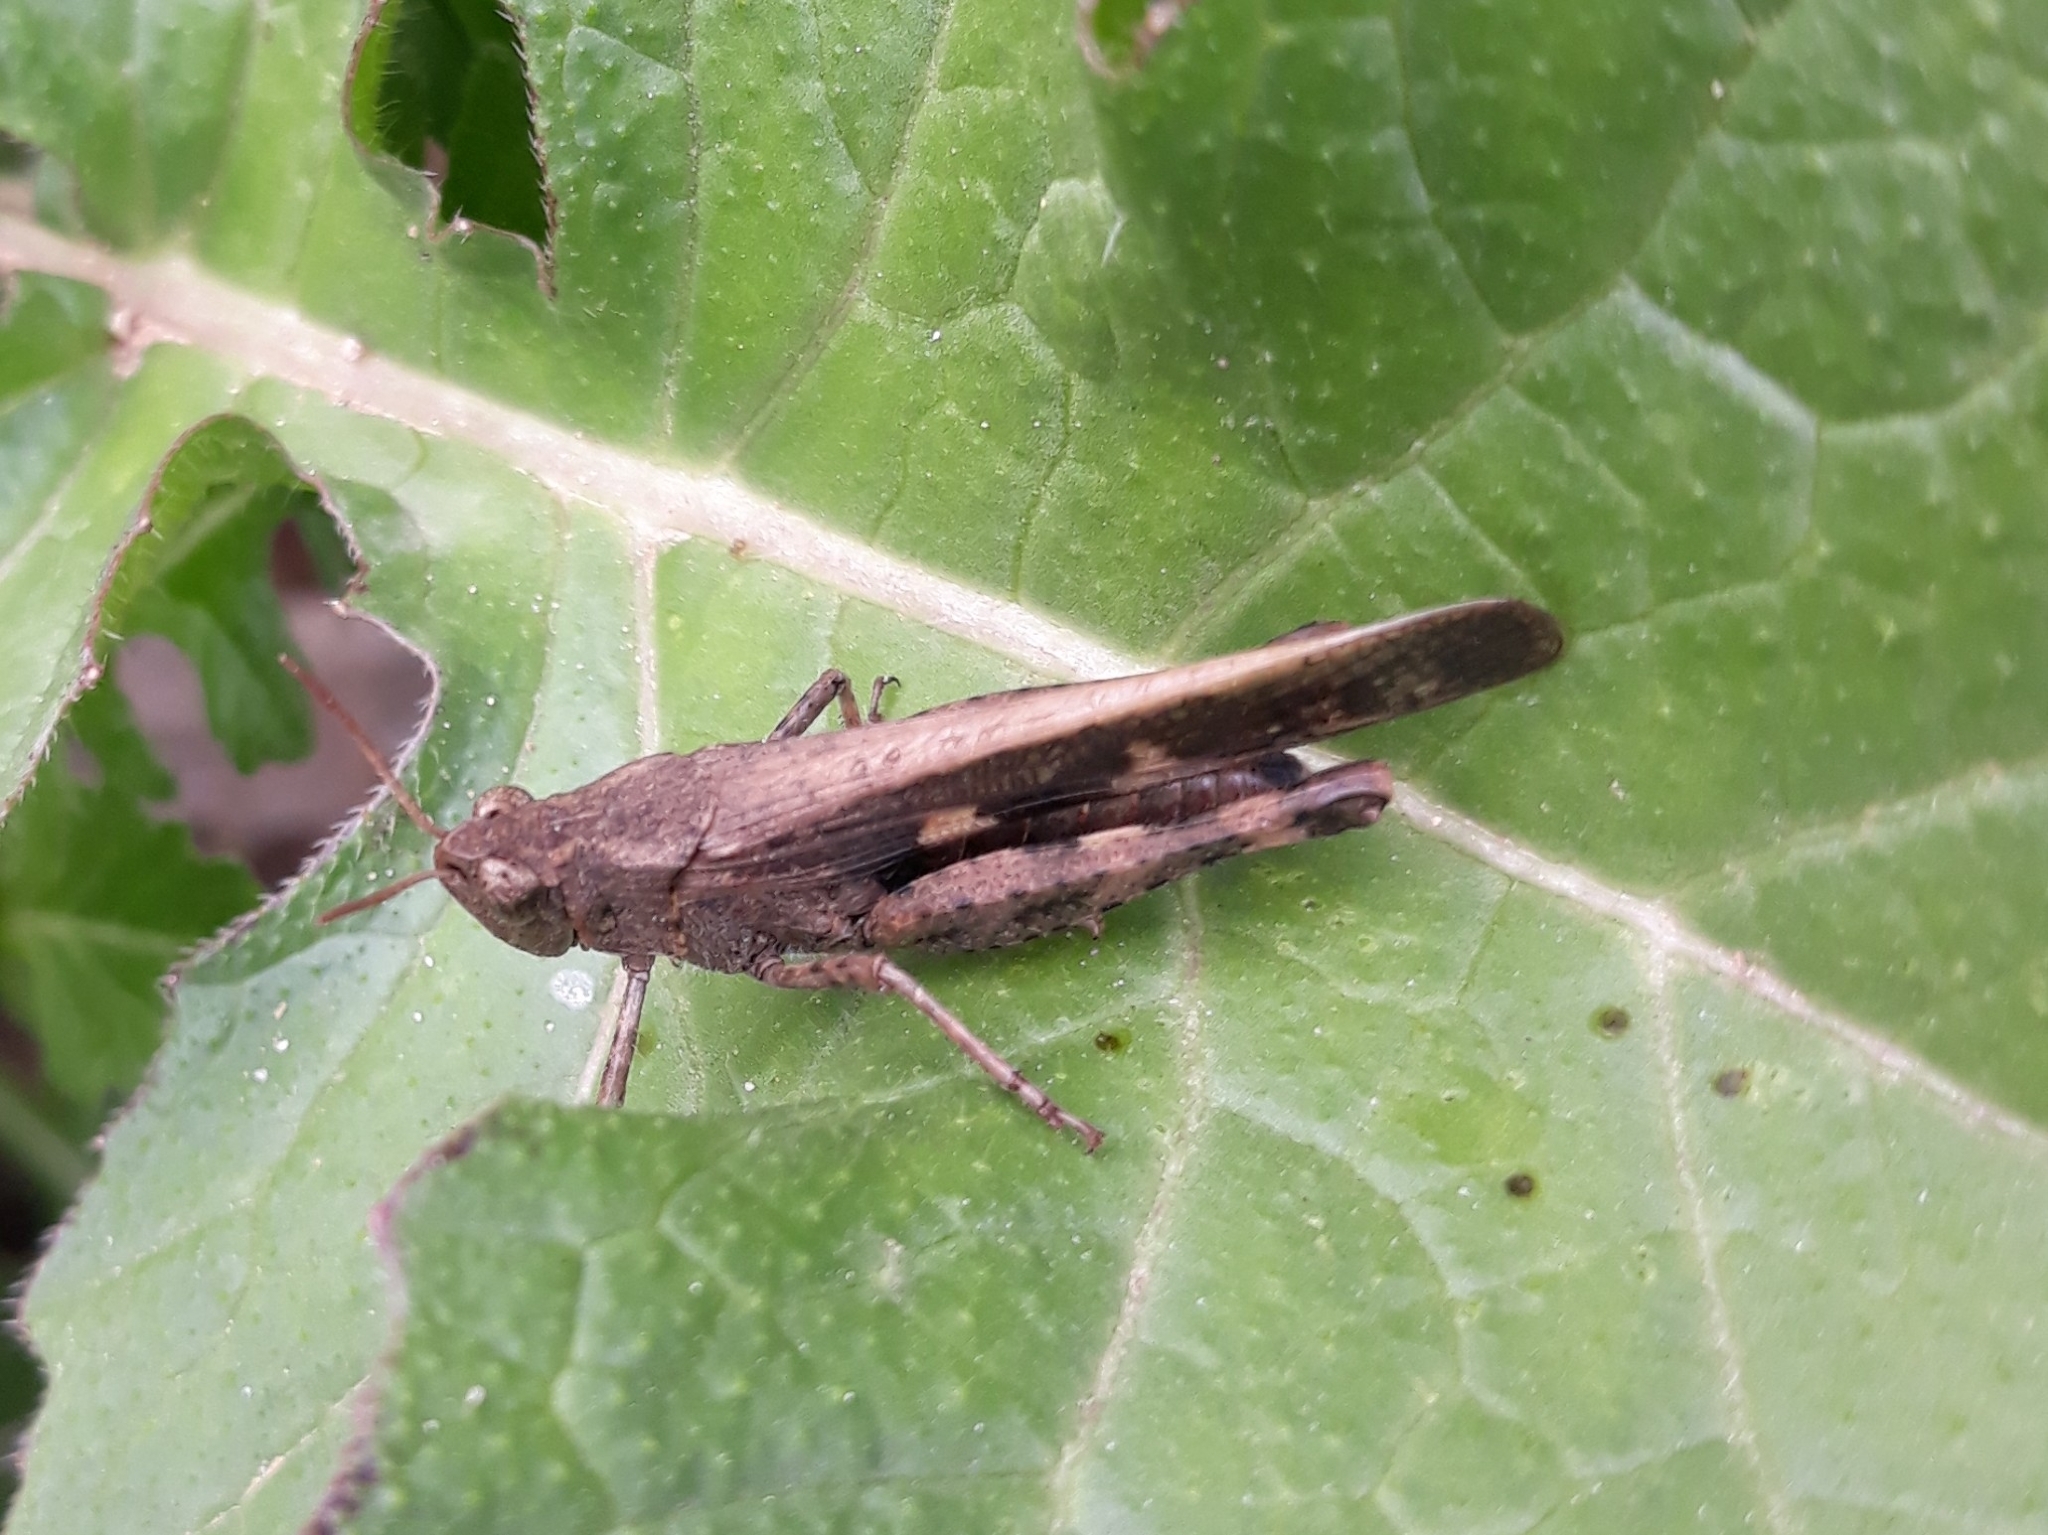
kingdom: Animalia
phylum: Arthropoda
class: Insecta
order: Orthoptera
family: Acrididae
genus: Aiolopus
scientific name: Aiolopus strepens
